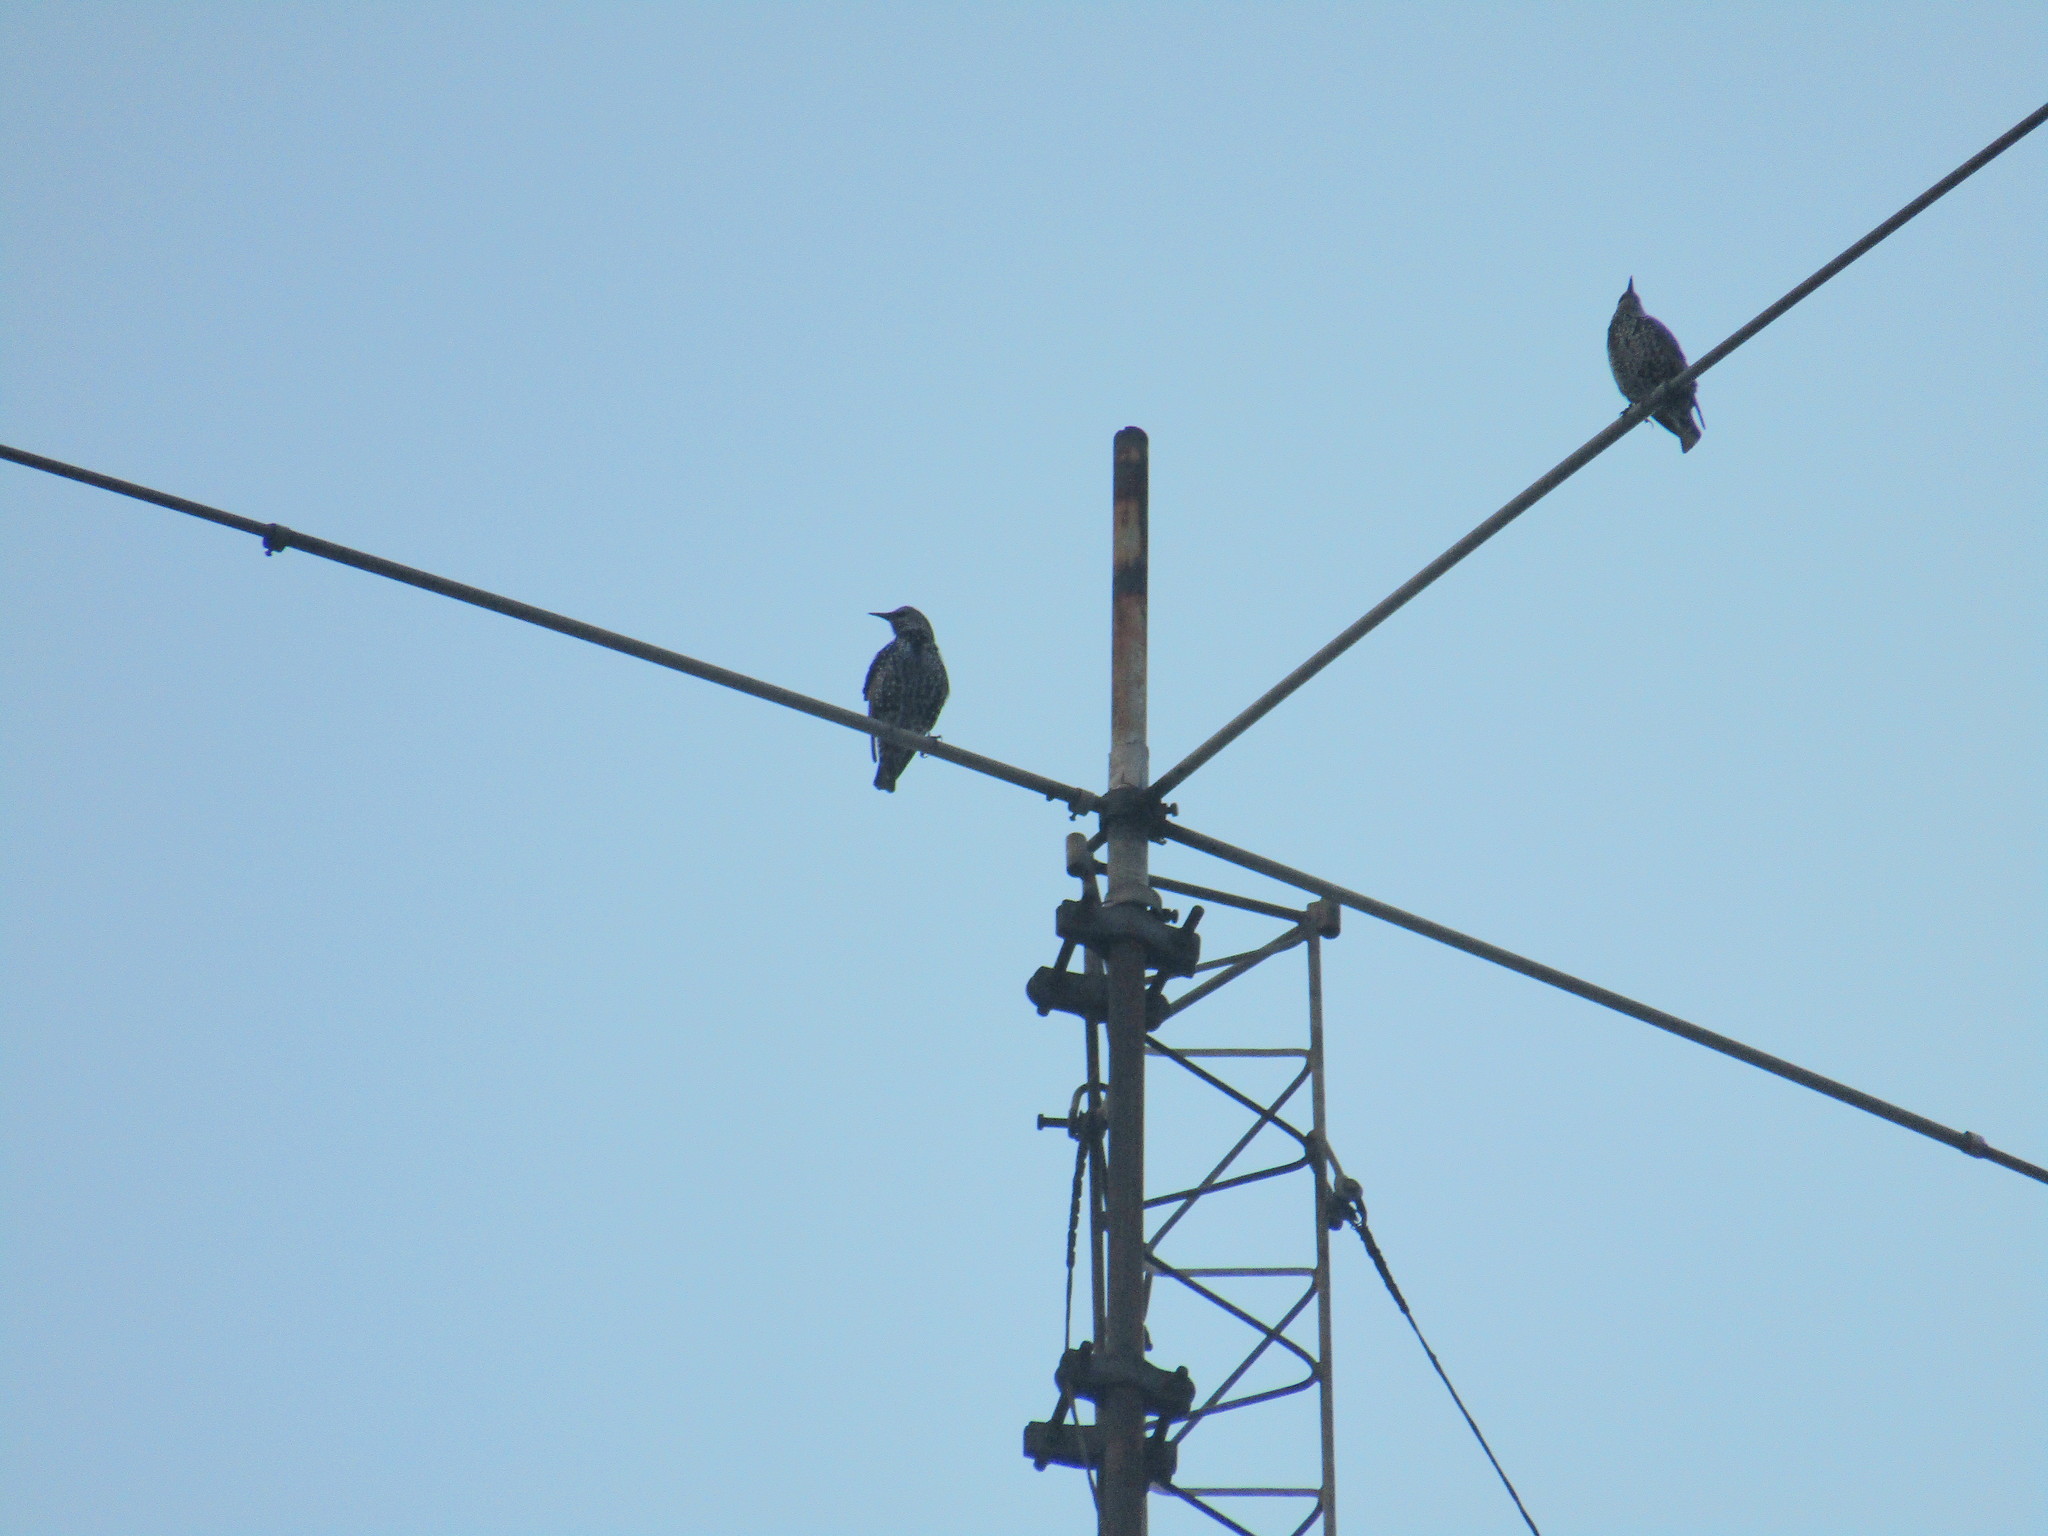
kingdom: Animalia
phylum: Chordata
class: Aves
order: Passeriformes
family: Sturnidae
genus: Sturnus
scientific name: Sturnus vulgaris
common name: Common starling
